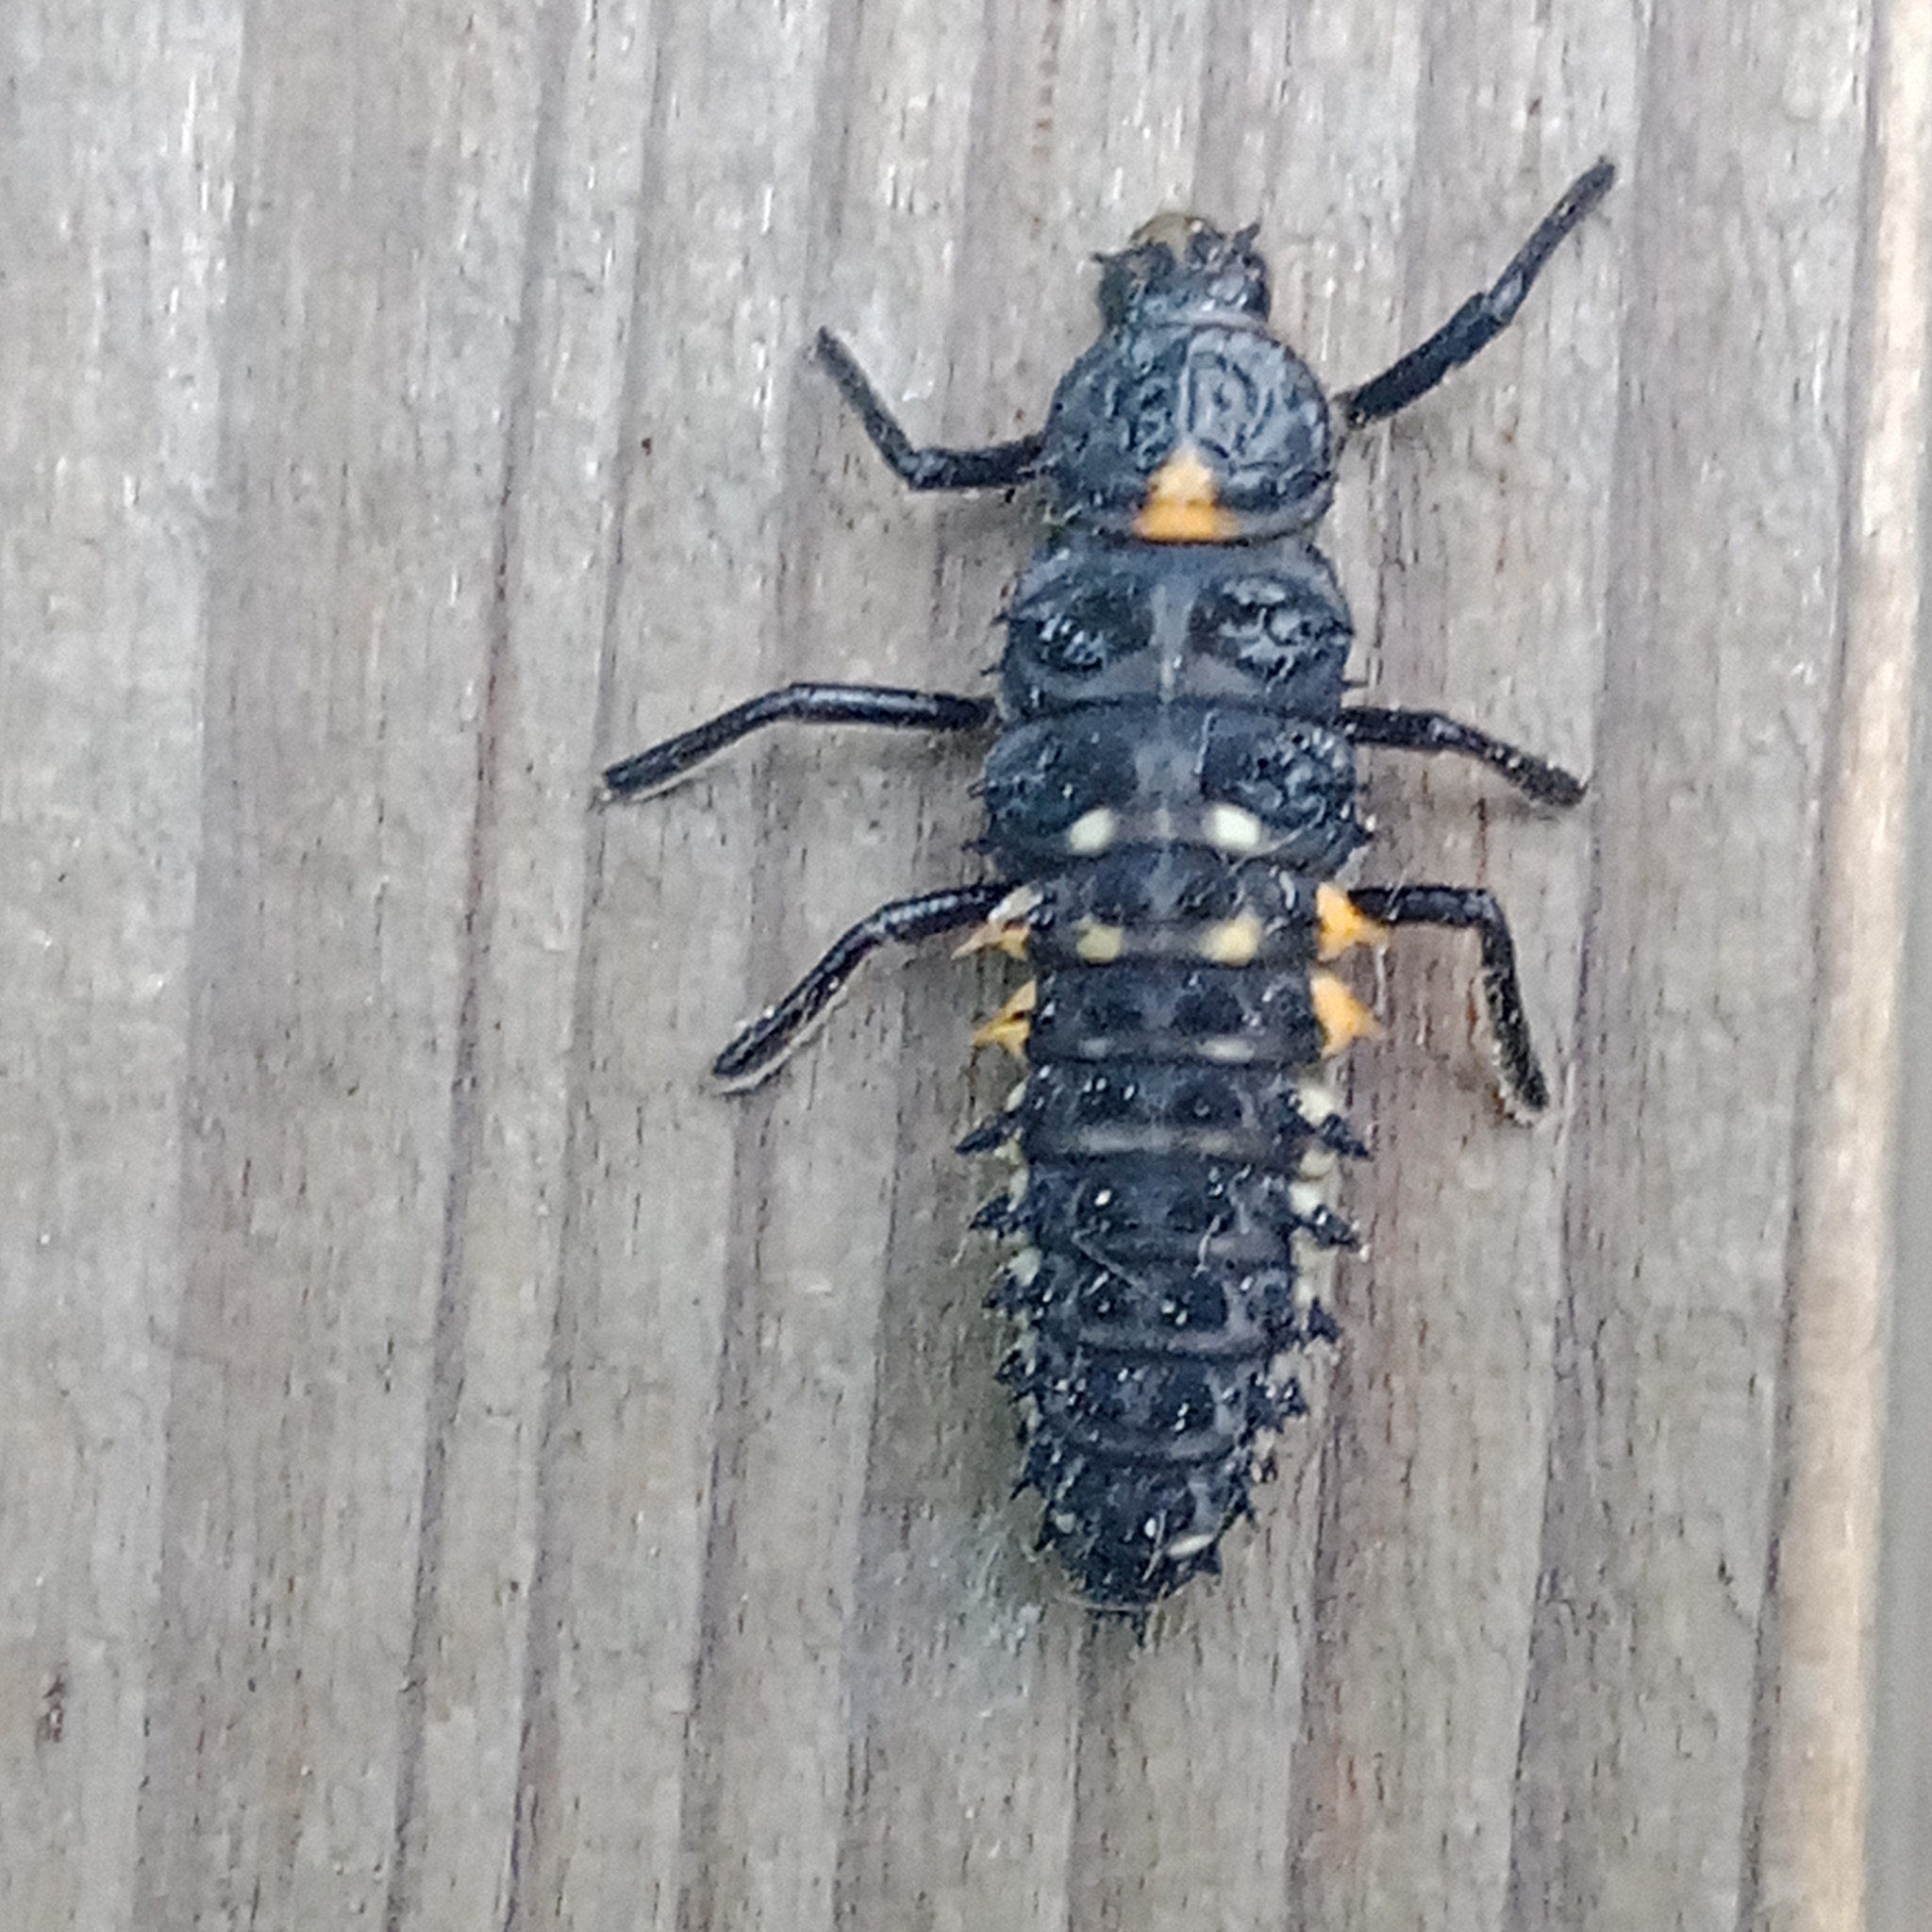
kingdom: Animalia
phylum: Arthropoda
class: Insecta
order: Coleoptera
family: Coccinellidae
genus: Anatis
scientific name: Anatis ocellata
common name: Eyed ladybird
